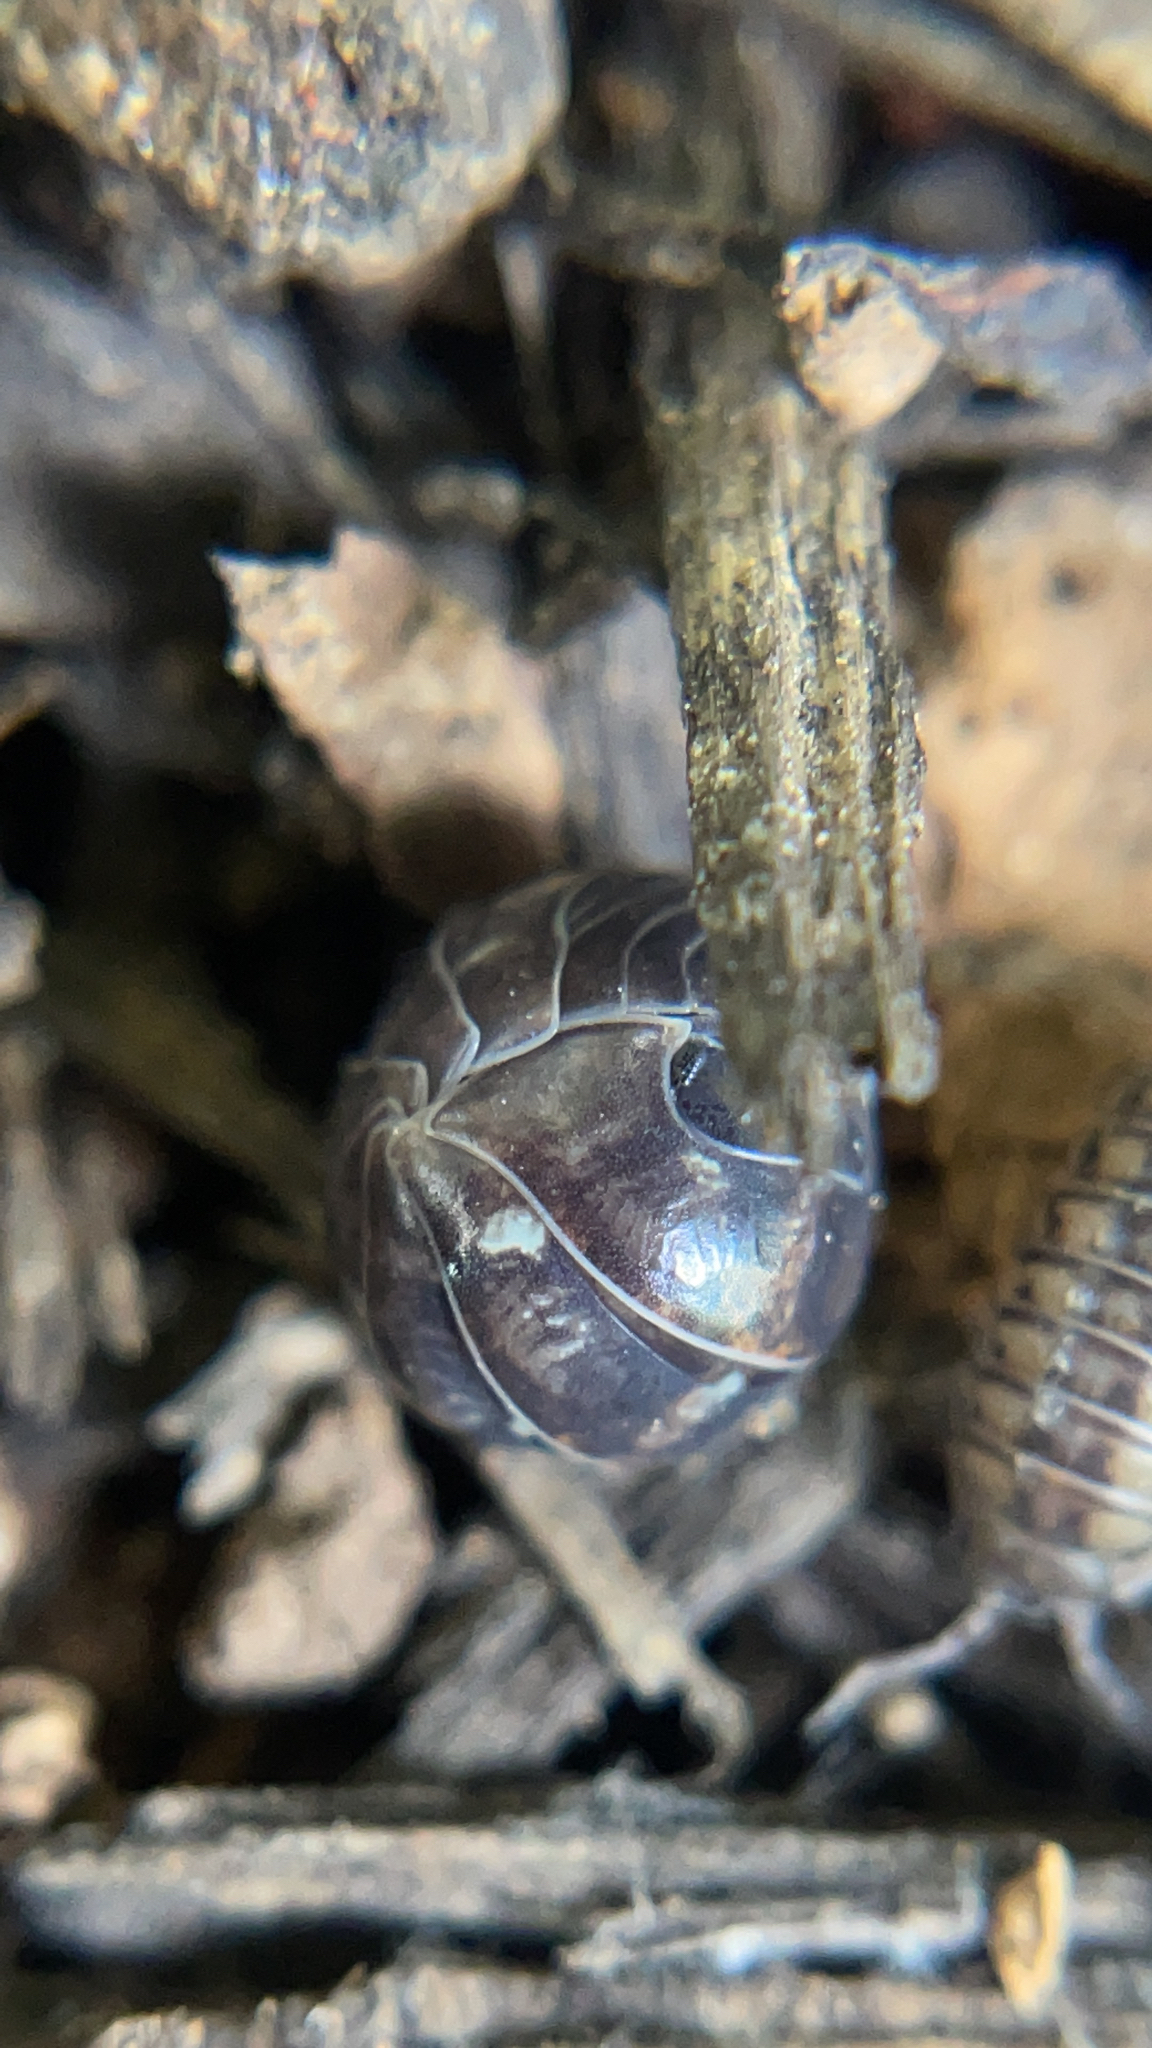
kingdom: Animalia
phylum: Arthropoda
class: Malacostraca
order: Isopoda
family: Armadillidiidae
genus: Armadillidium
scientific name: Armadillidium vulgare
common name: Common pill woodlouse
